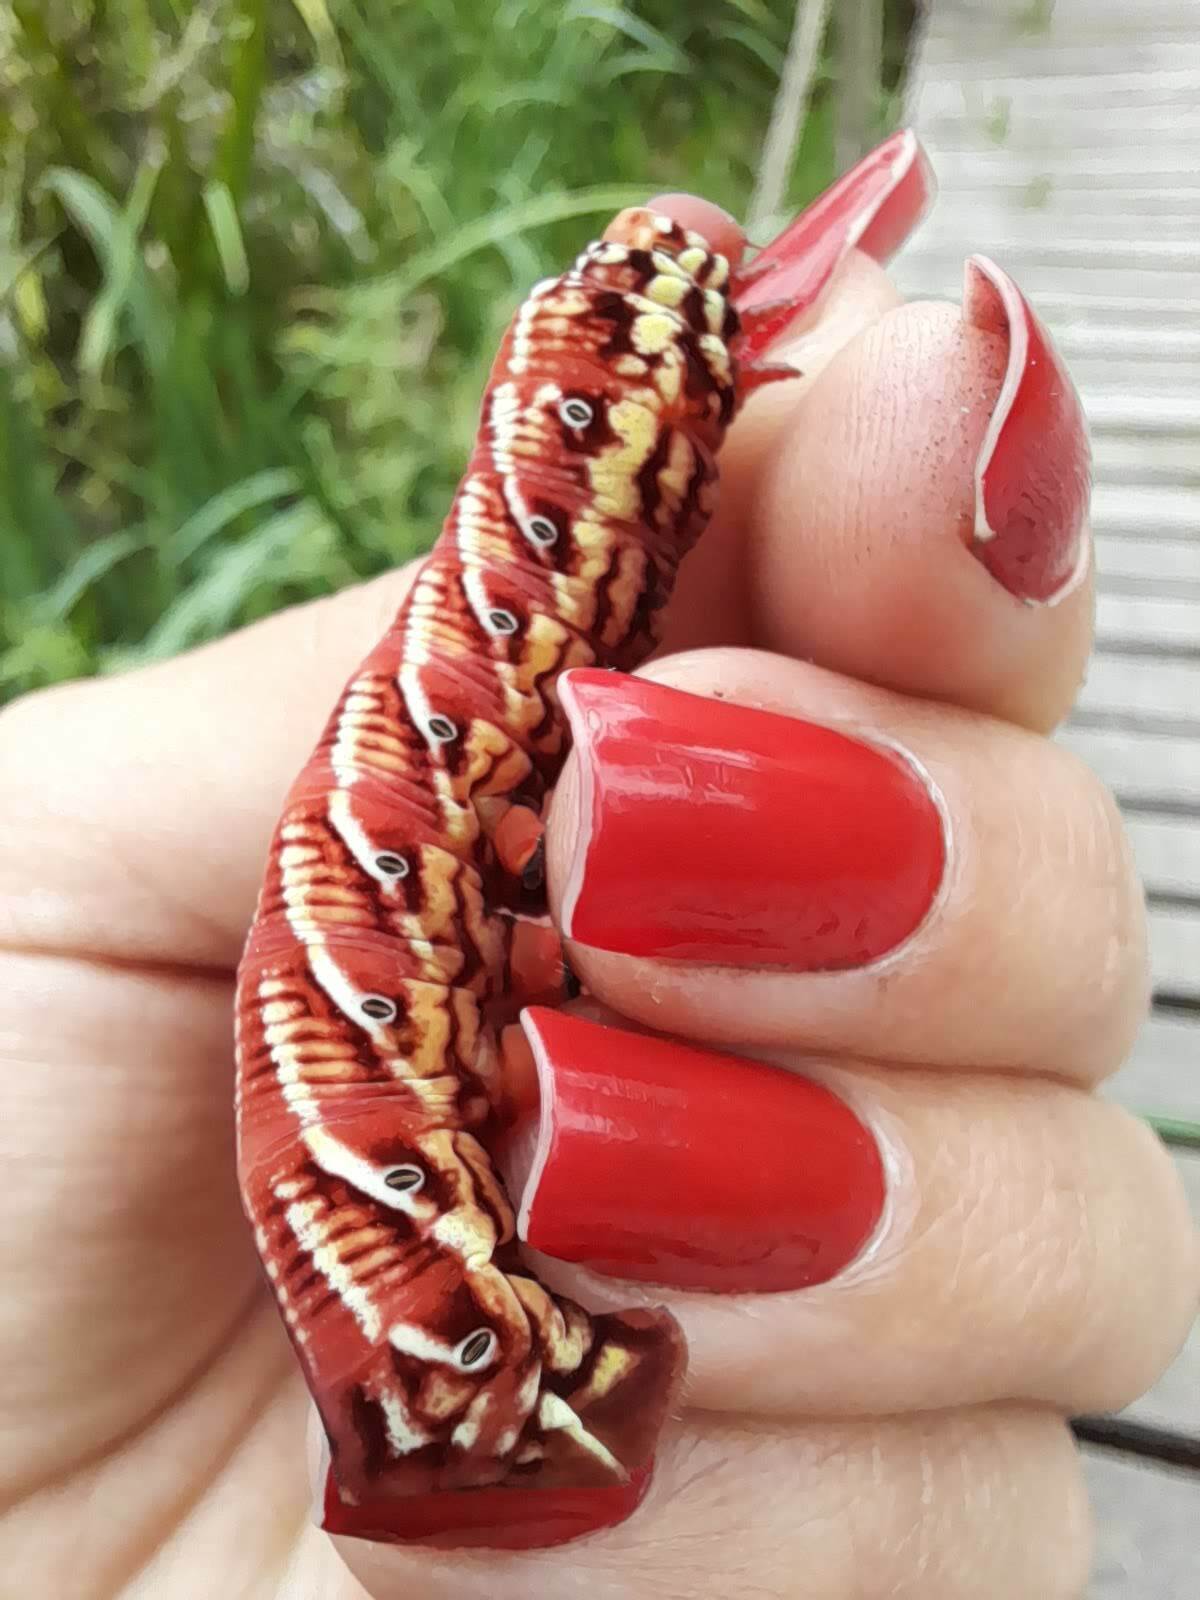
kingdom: Animalia
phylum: Arthropoda
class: Insecta
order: Lepidoptera
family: Sphingidae
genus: Eumorpha
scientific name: Eumorpha fasciatus
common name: Banded sphinx
